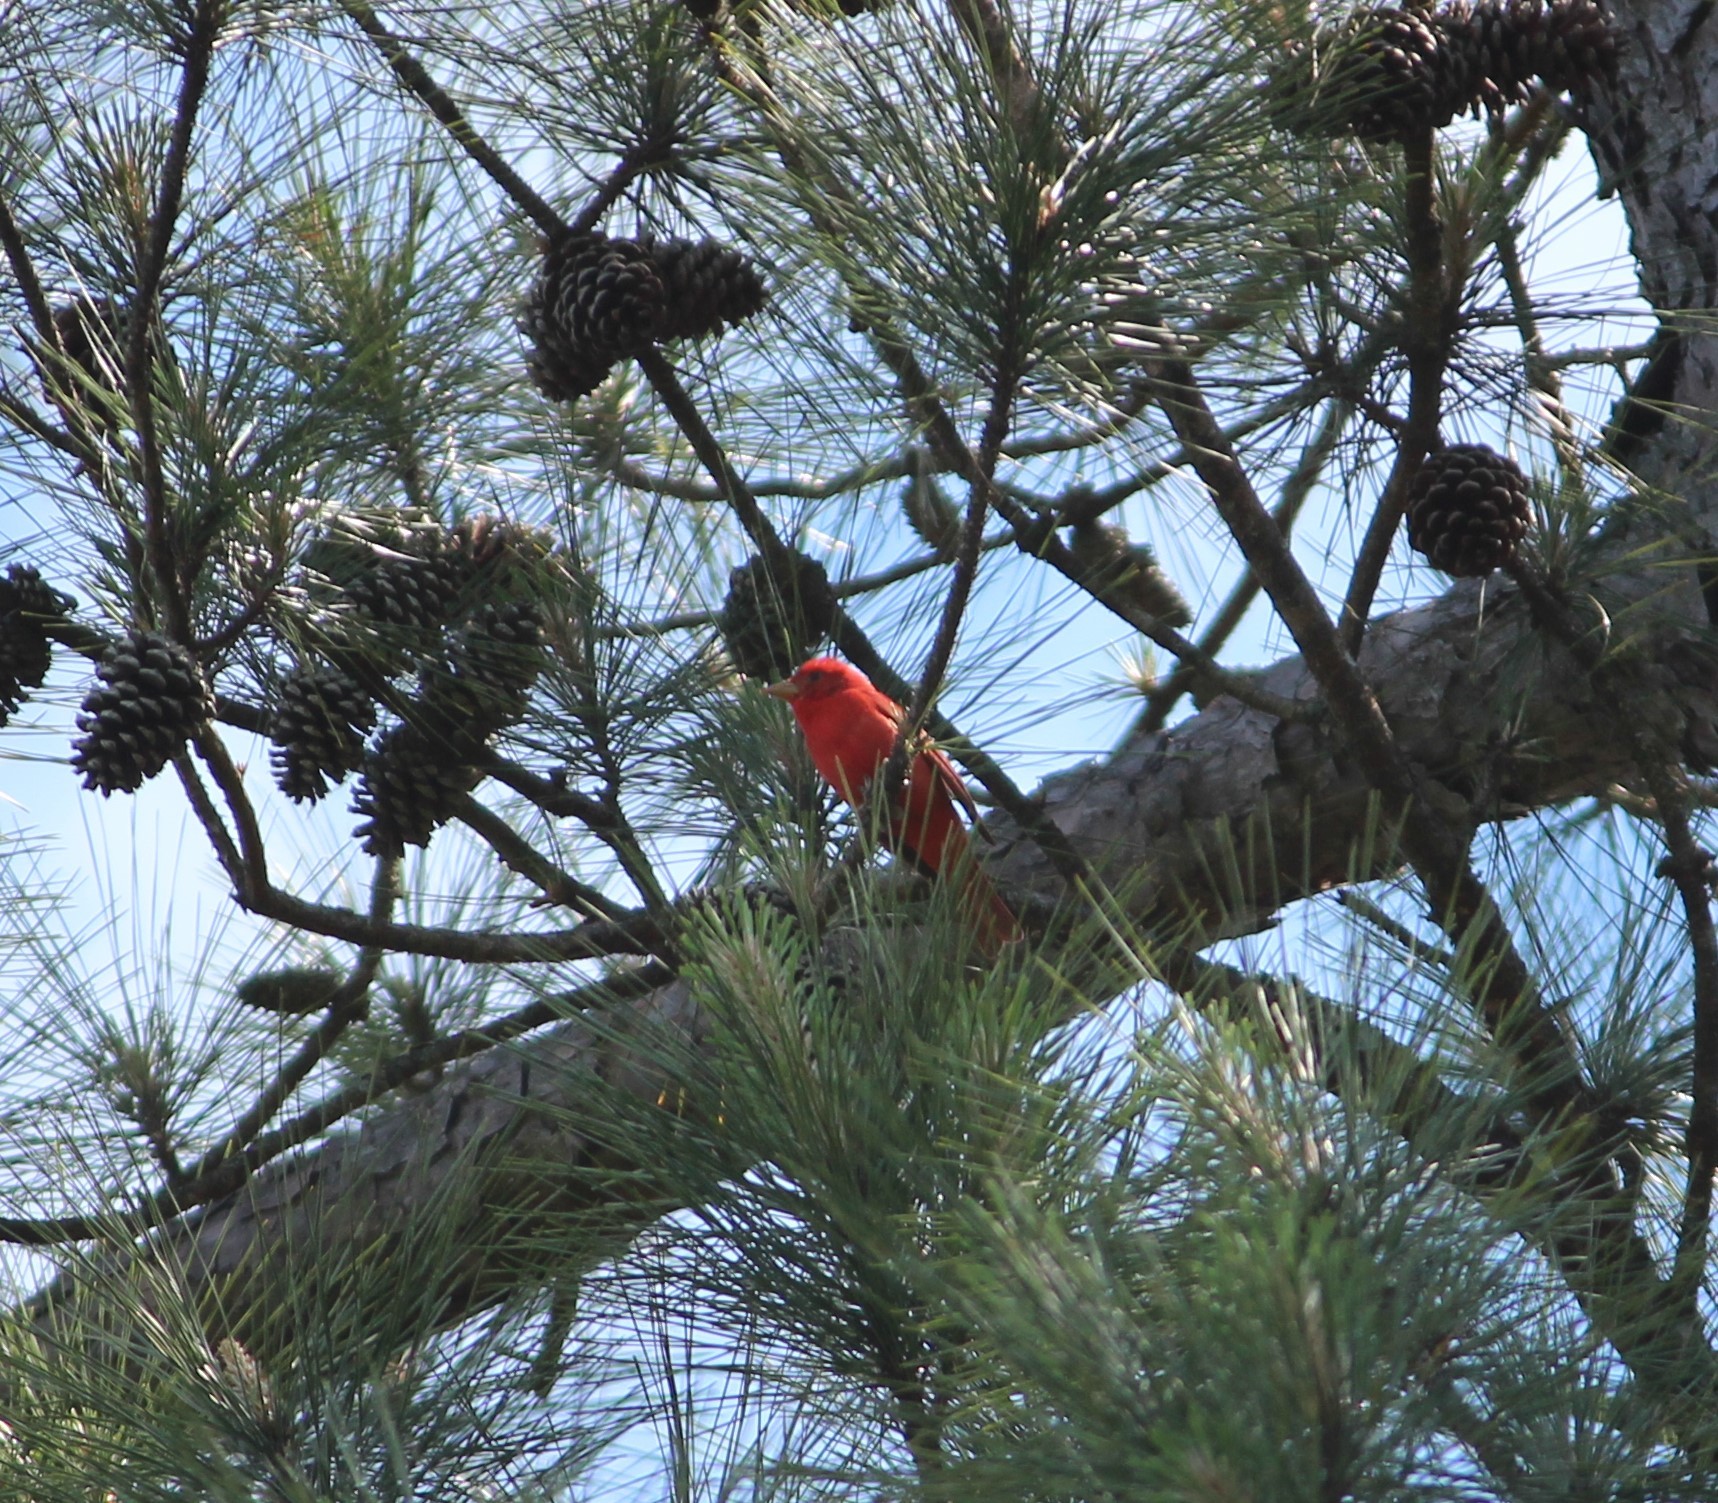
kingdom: Animalia
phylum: Chordata
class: Aves
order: Passeriformes
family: Cardinalidae
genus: Piranga
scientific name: Piranga rubra
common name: Summer tanager
